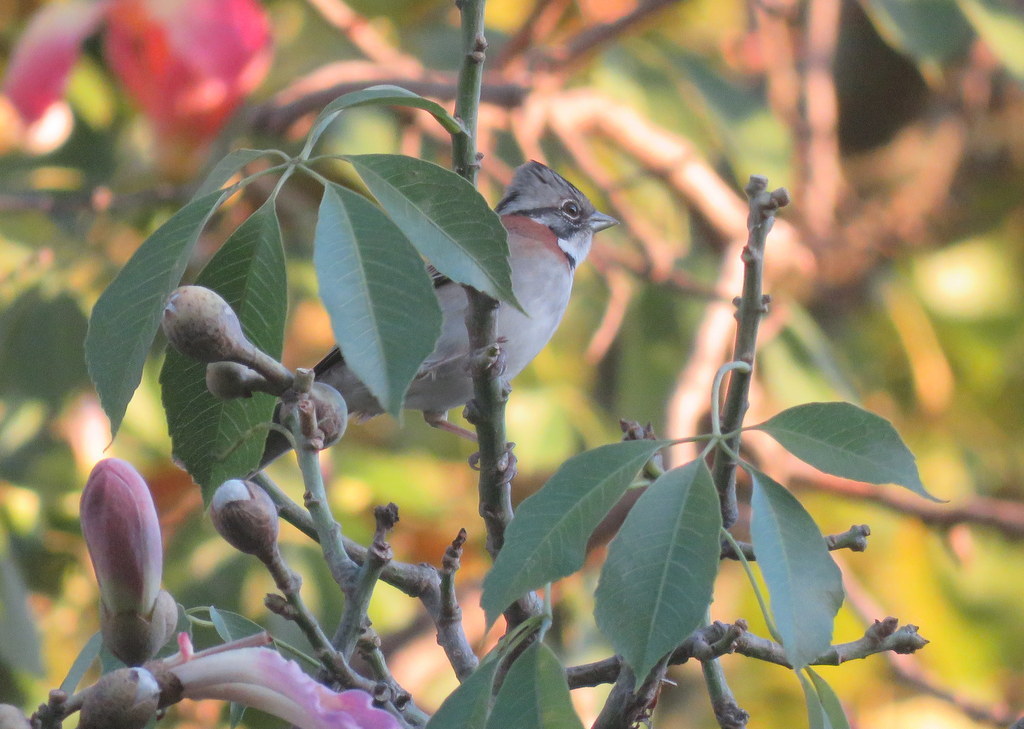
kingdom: Animalia
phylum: Chordata
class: Aves
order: Passeriformes
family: Passerellidae
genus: Zonotrichia
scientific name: Zonotrichia capensis
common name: Rufous-collared sparrow
